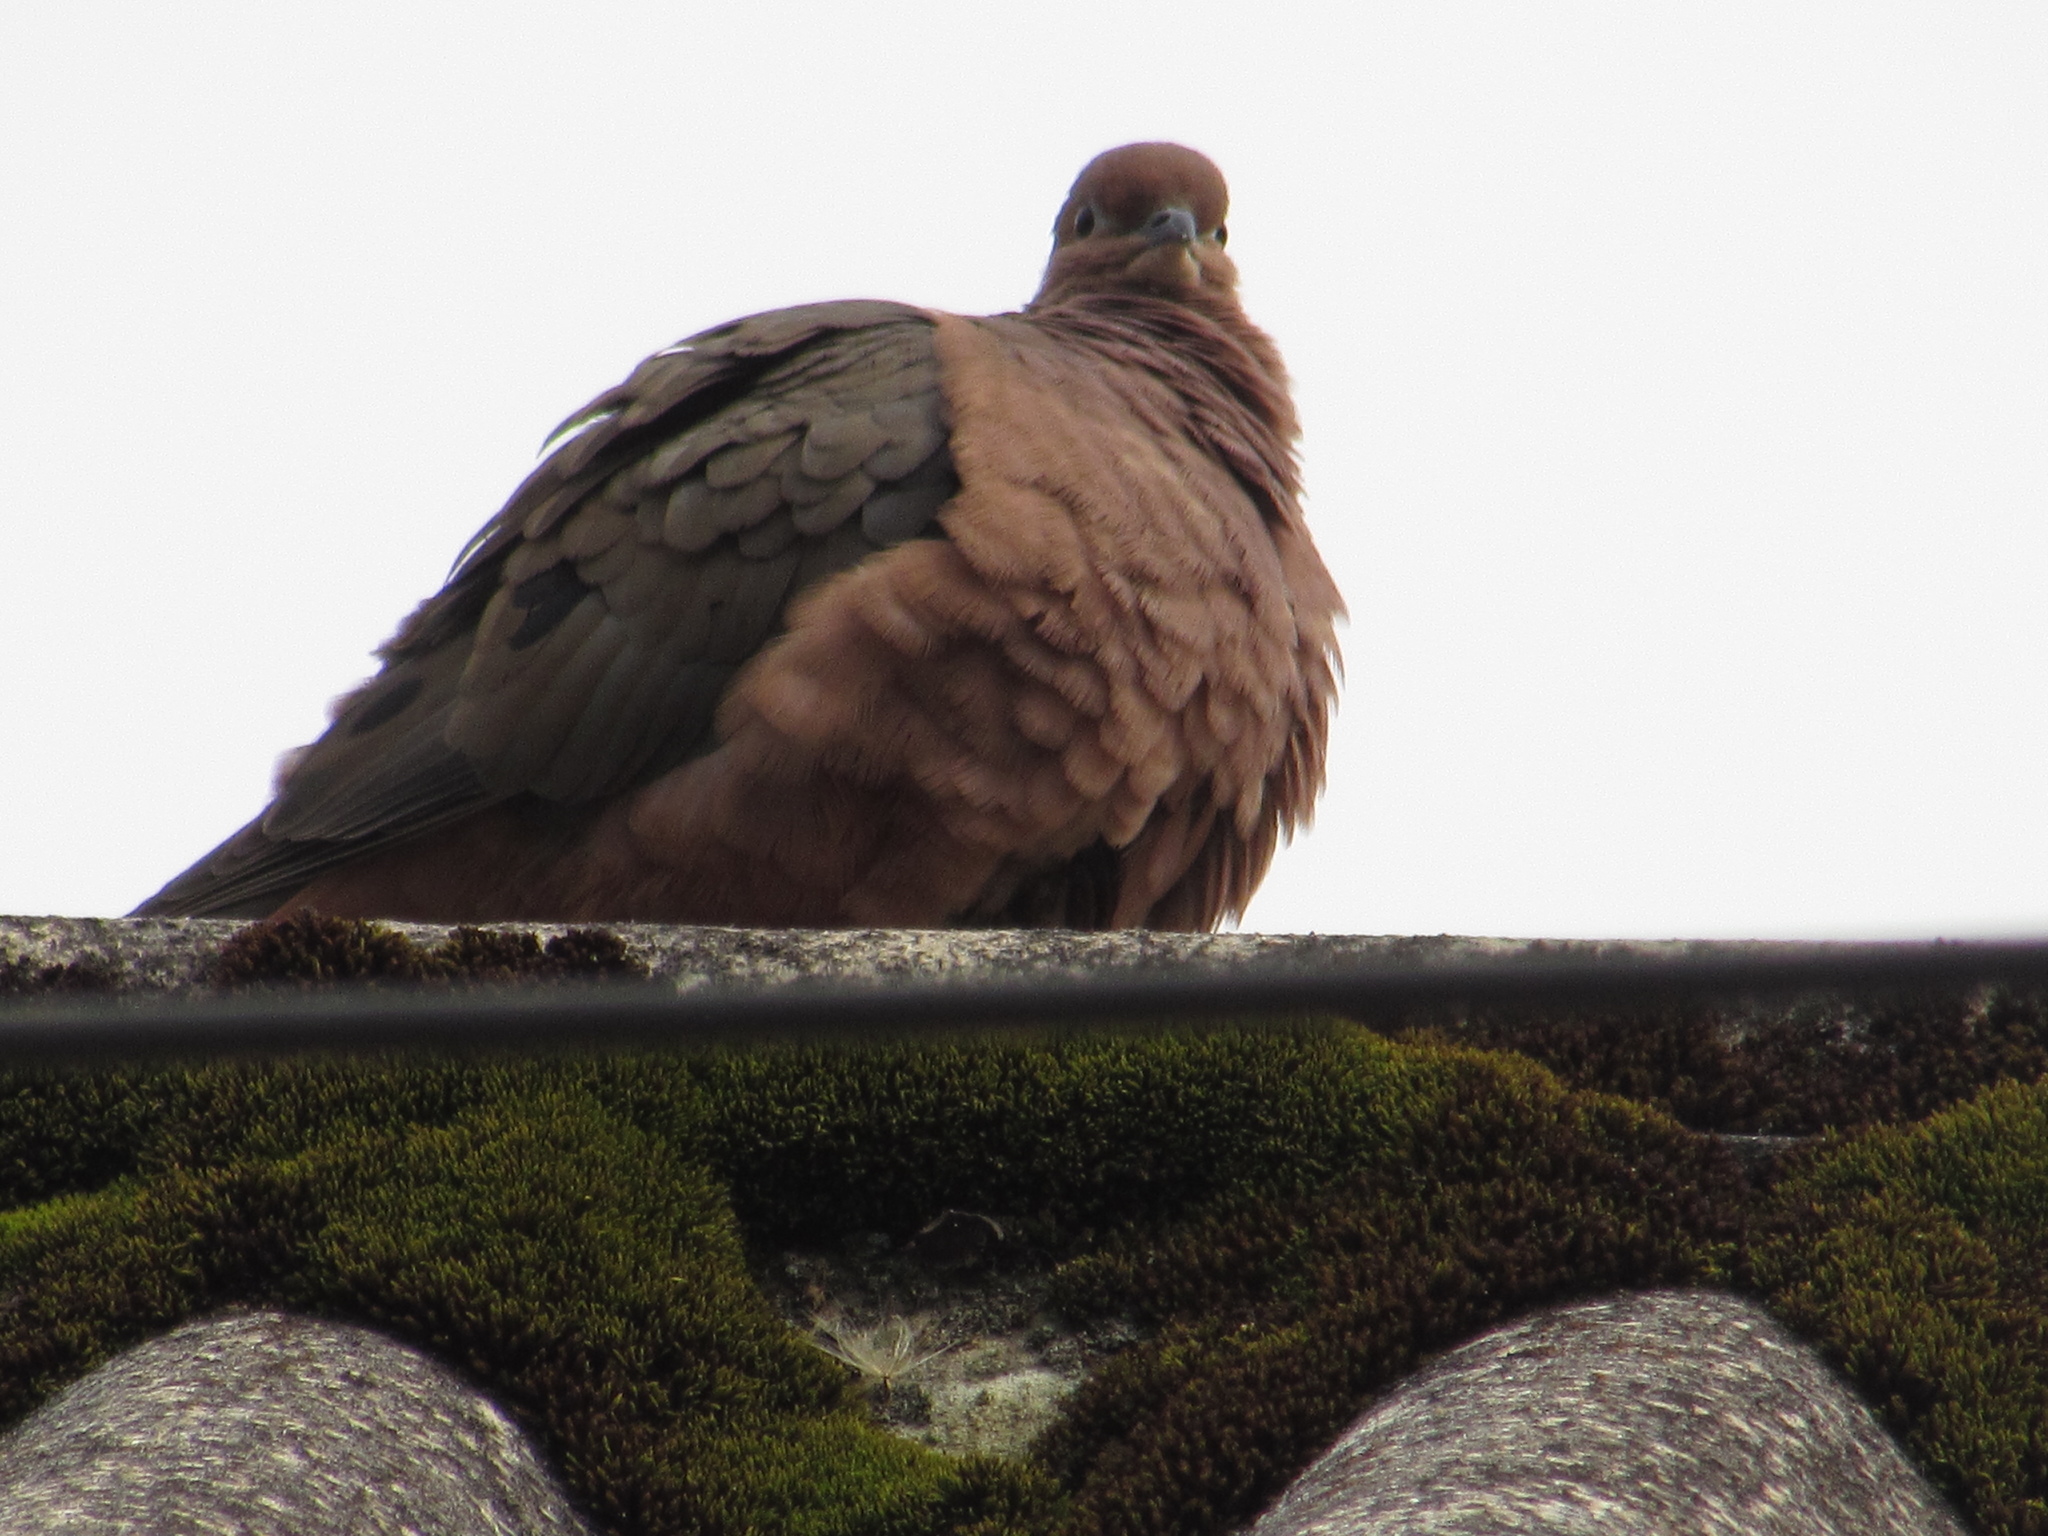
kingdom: Animalia
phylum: Chordata
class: Aves
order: Columbiformes
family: Columbidae
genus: Zenaida
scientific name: Zenaida auriculata
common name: Eared dove
